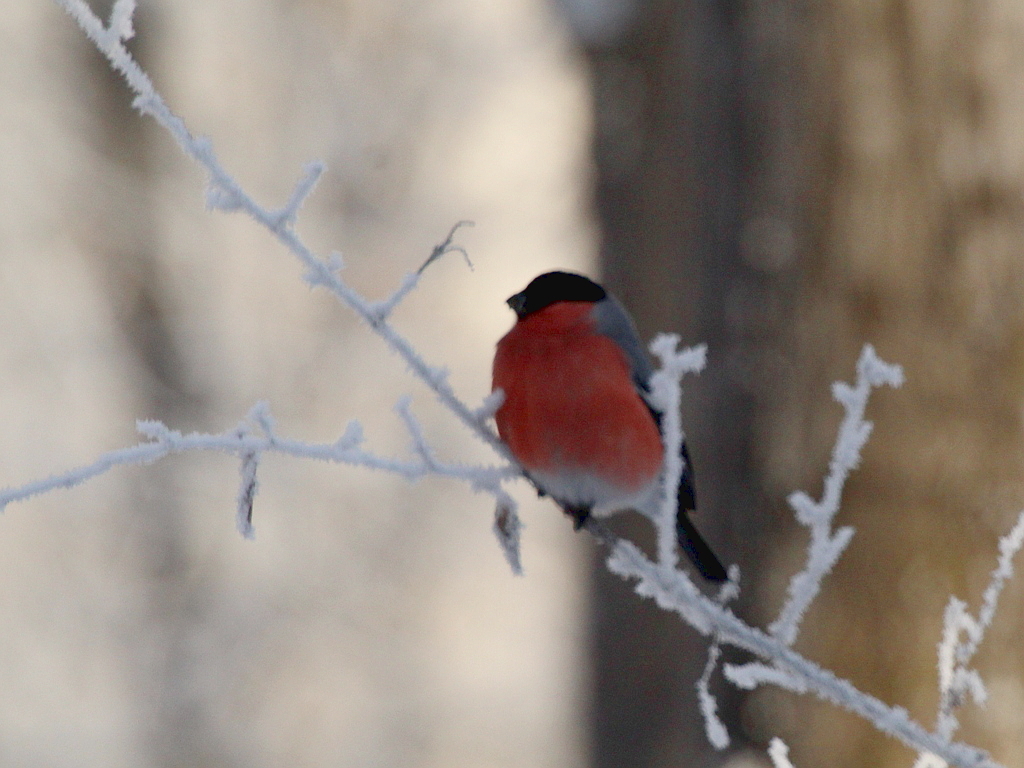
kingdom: Animalia
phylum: Chordata
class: Aves
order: Passeriformes
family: Fringillidae
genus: Pyrrhula
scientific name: Pyrrhula pyrrhula
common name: Eurasian bullfinch
